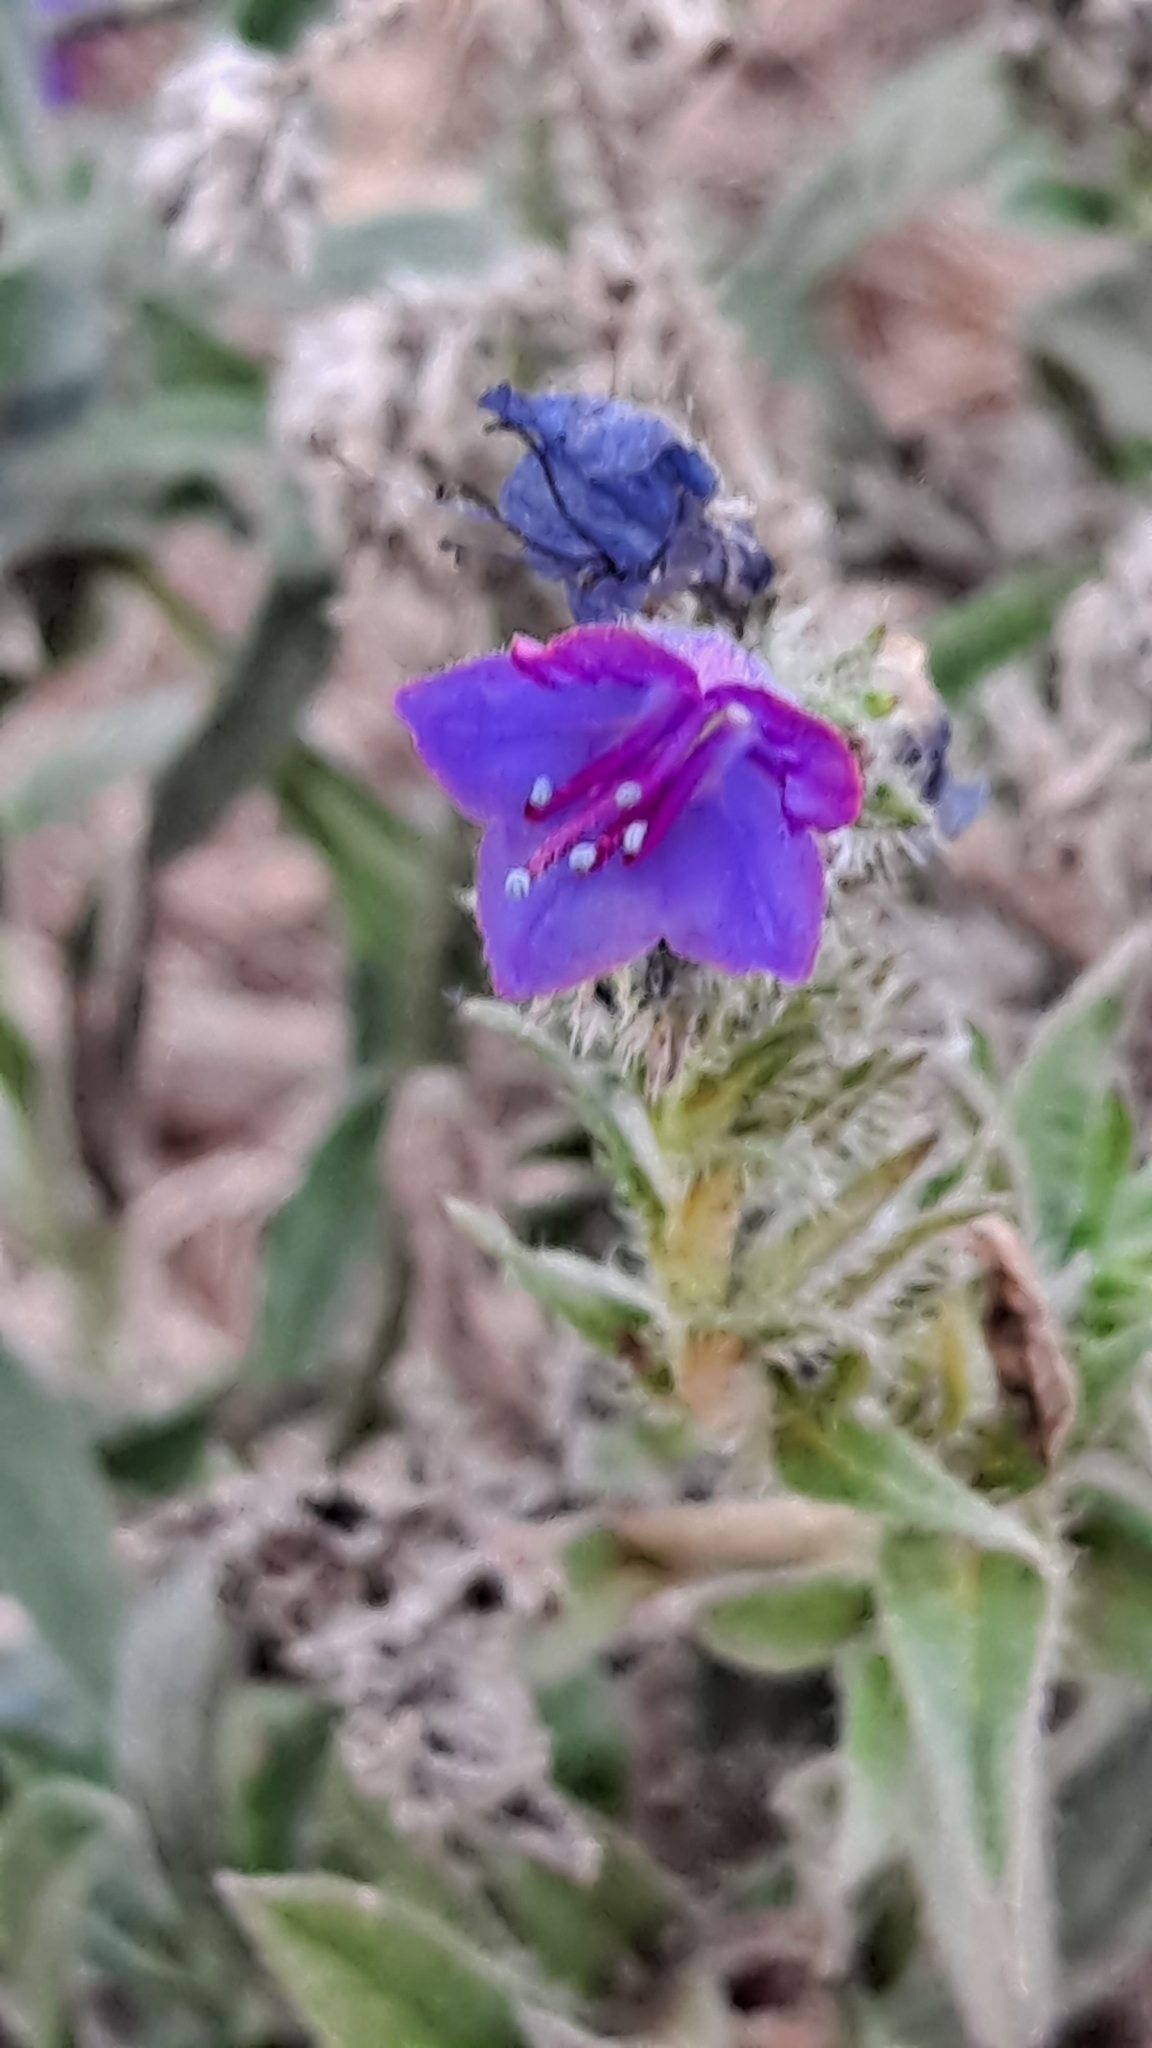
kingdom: Plantae
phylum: Tracheophyta
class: Magnoliopsida
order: Boraginales
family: Boraginaceae
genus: Echium
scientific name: Echium vulgare
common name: Common viper's bugloss
